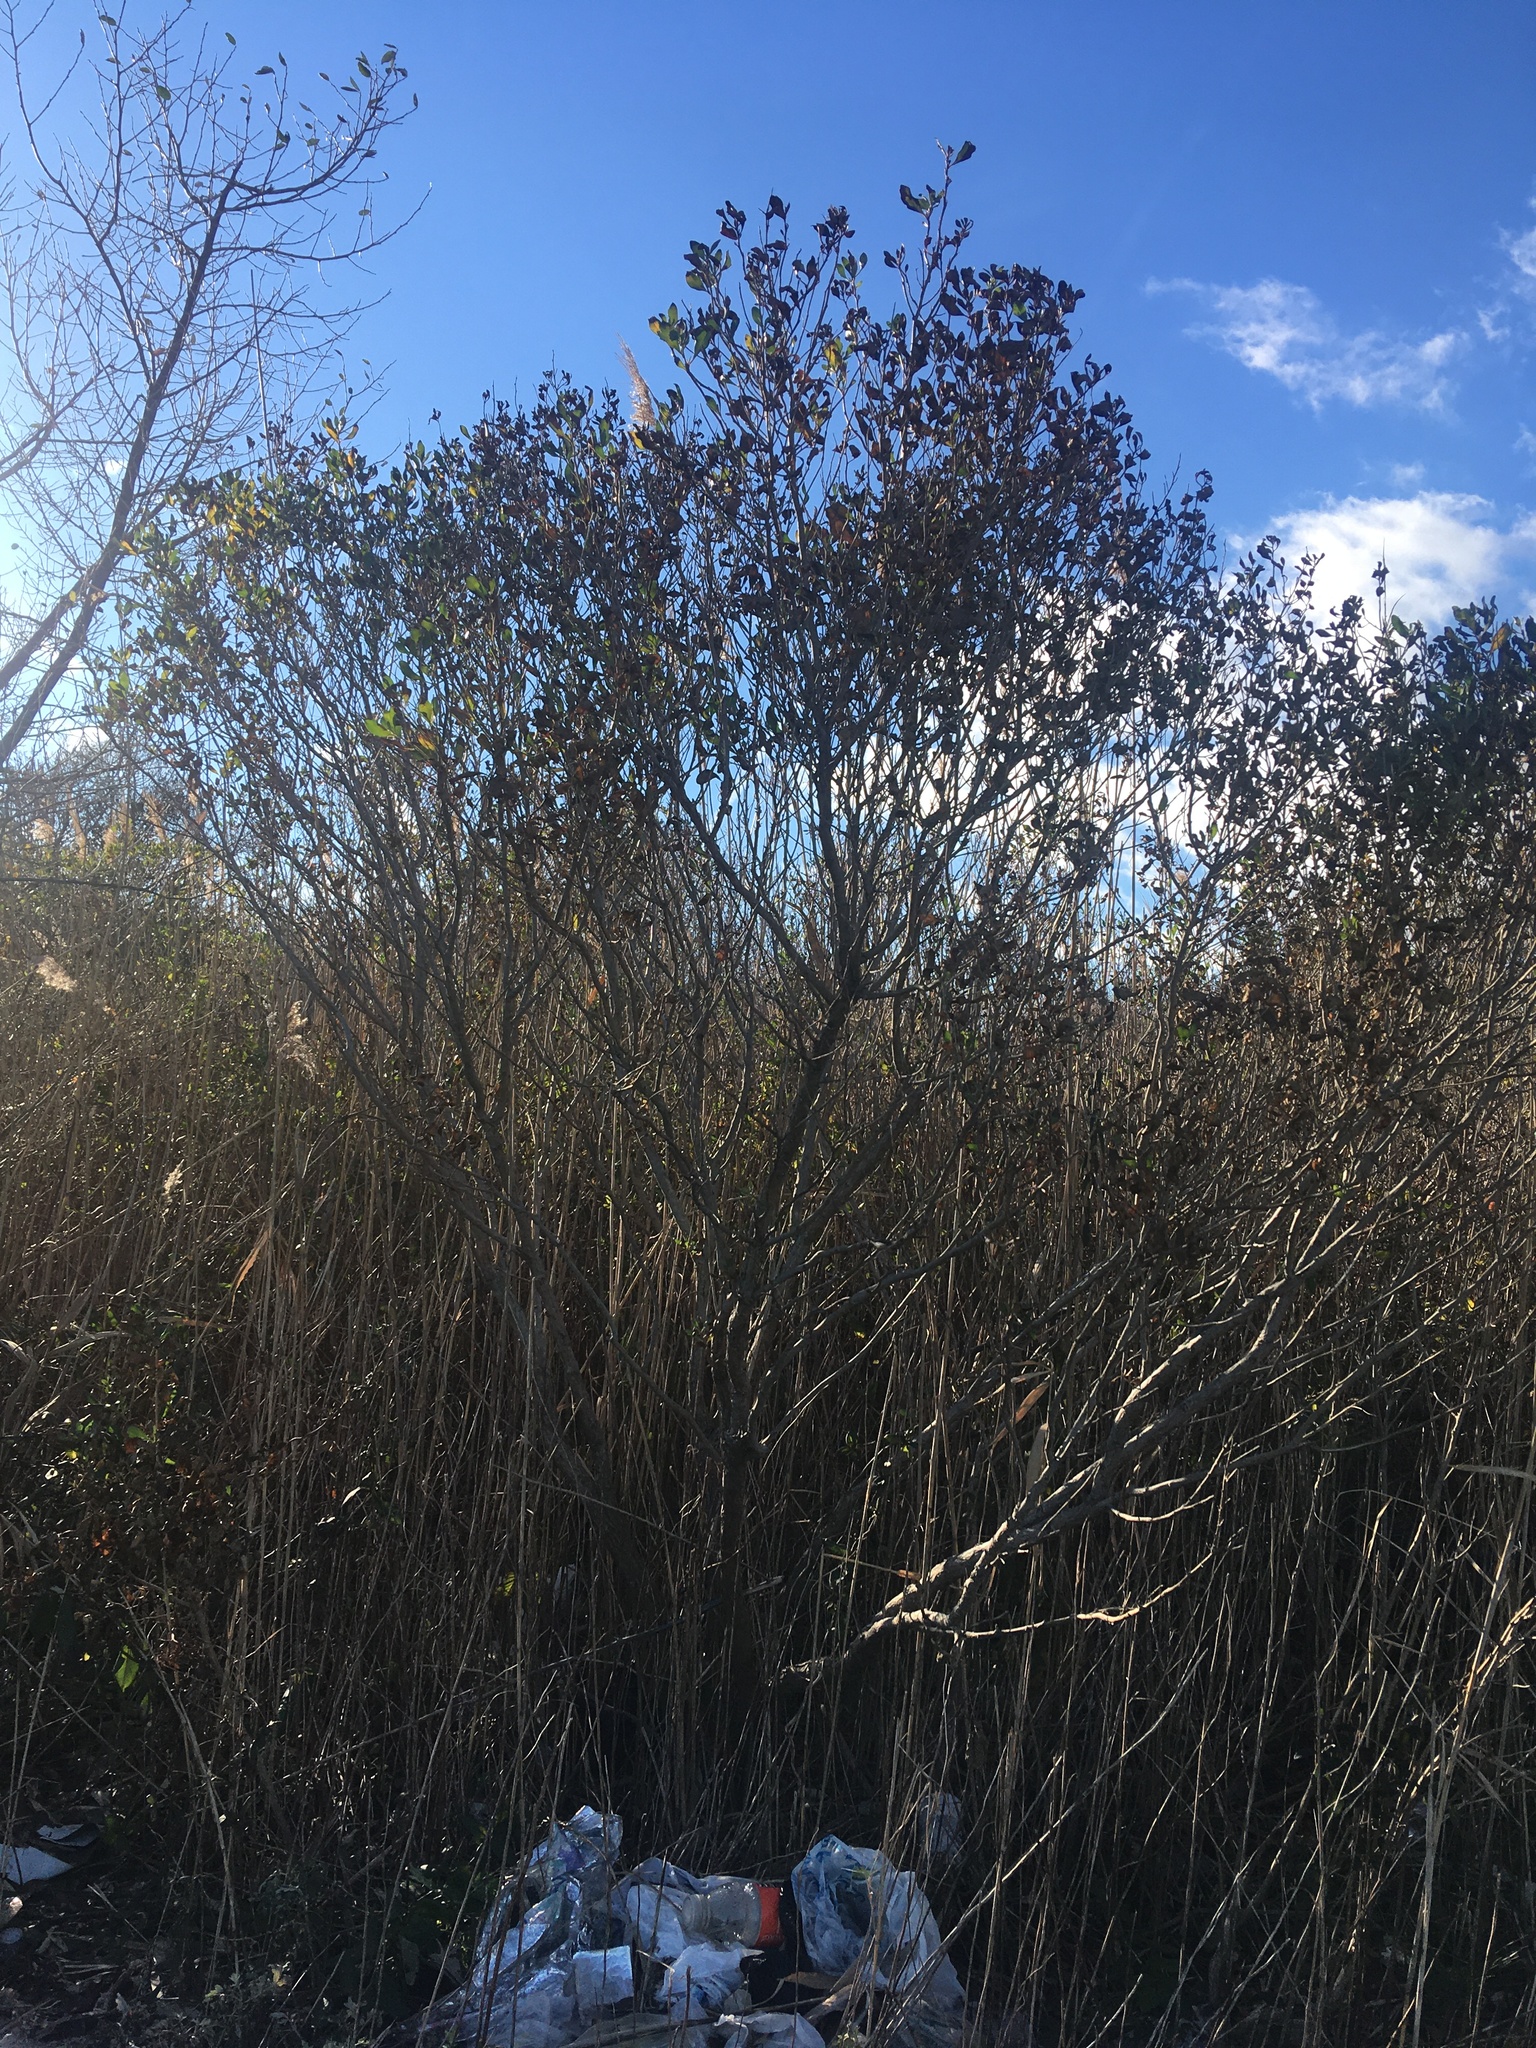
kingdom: Plantae
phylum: Tracheophyta
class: Magnoliopsida
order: Asterales
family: Asteraceae
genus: Baccharis
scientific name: Baccharis halimifolia
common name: Eastern baccharis
